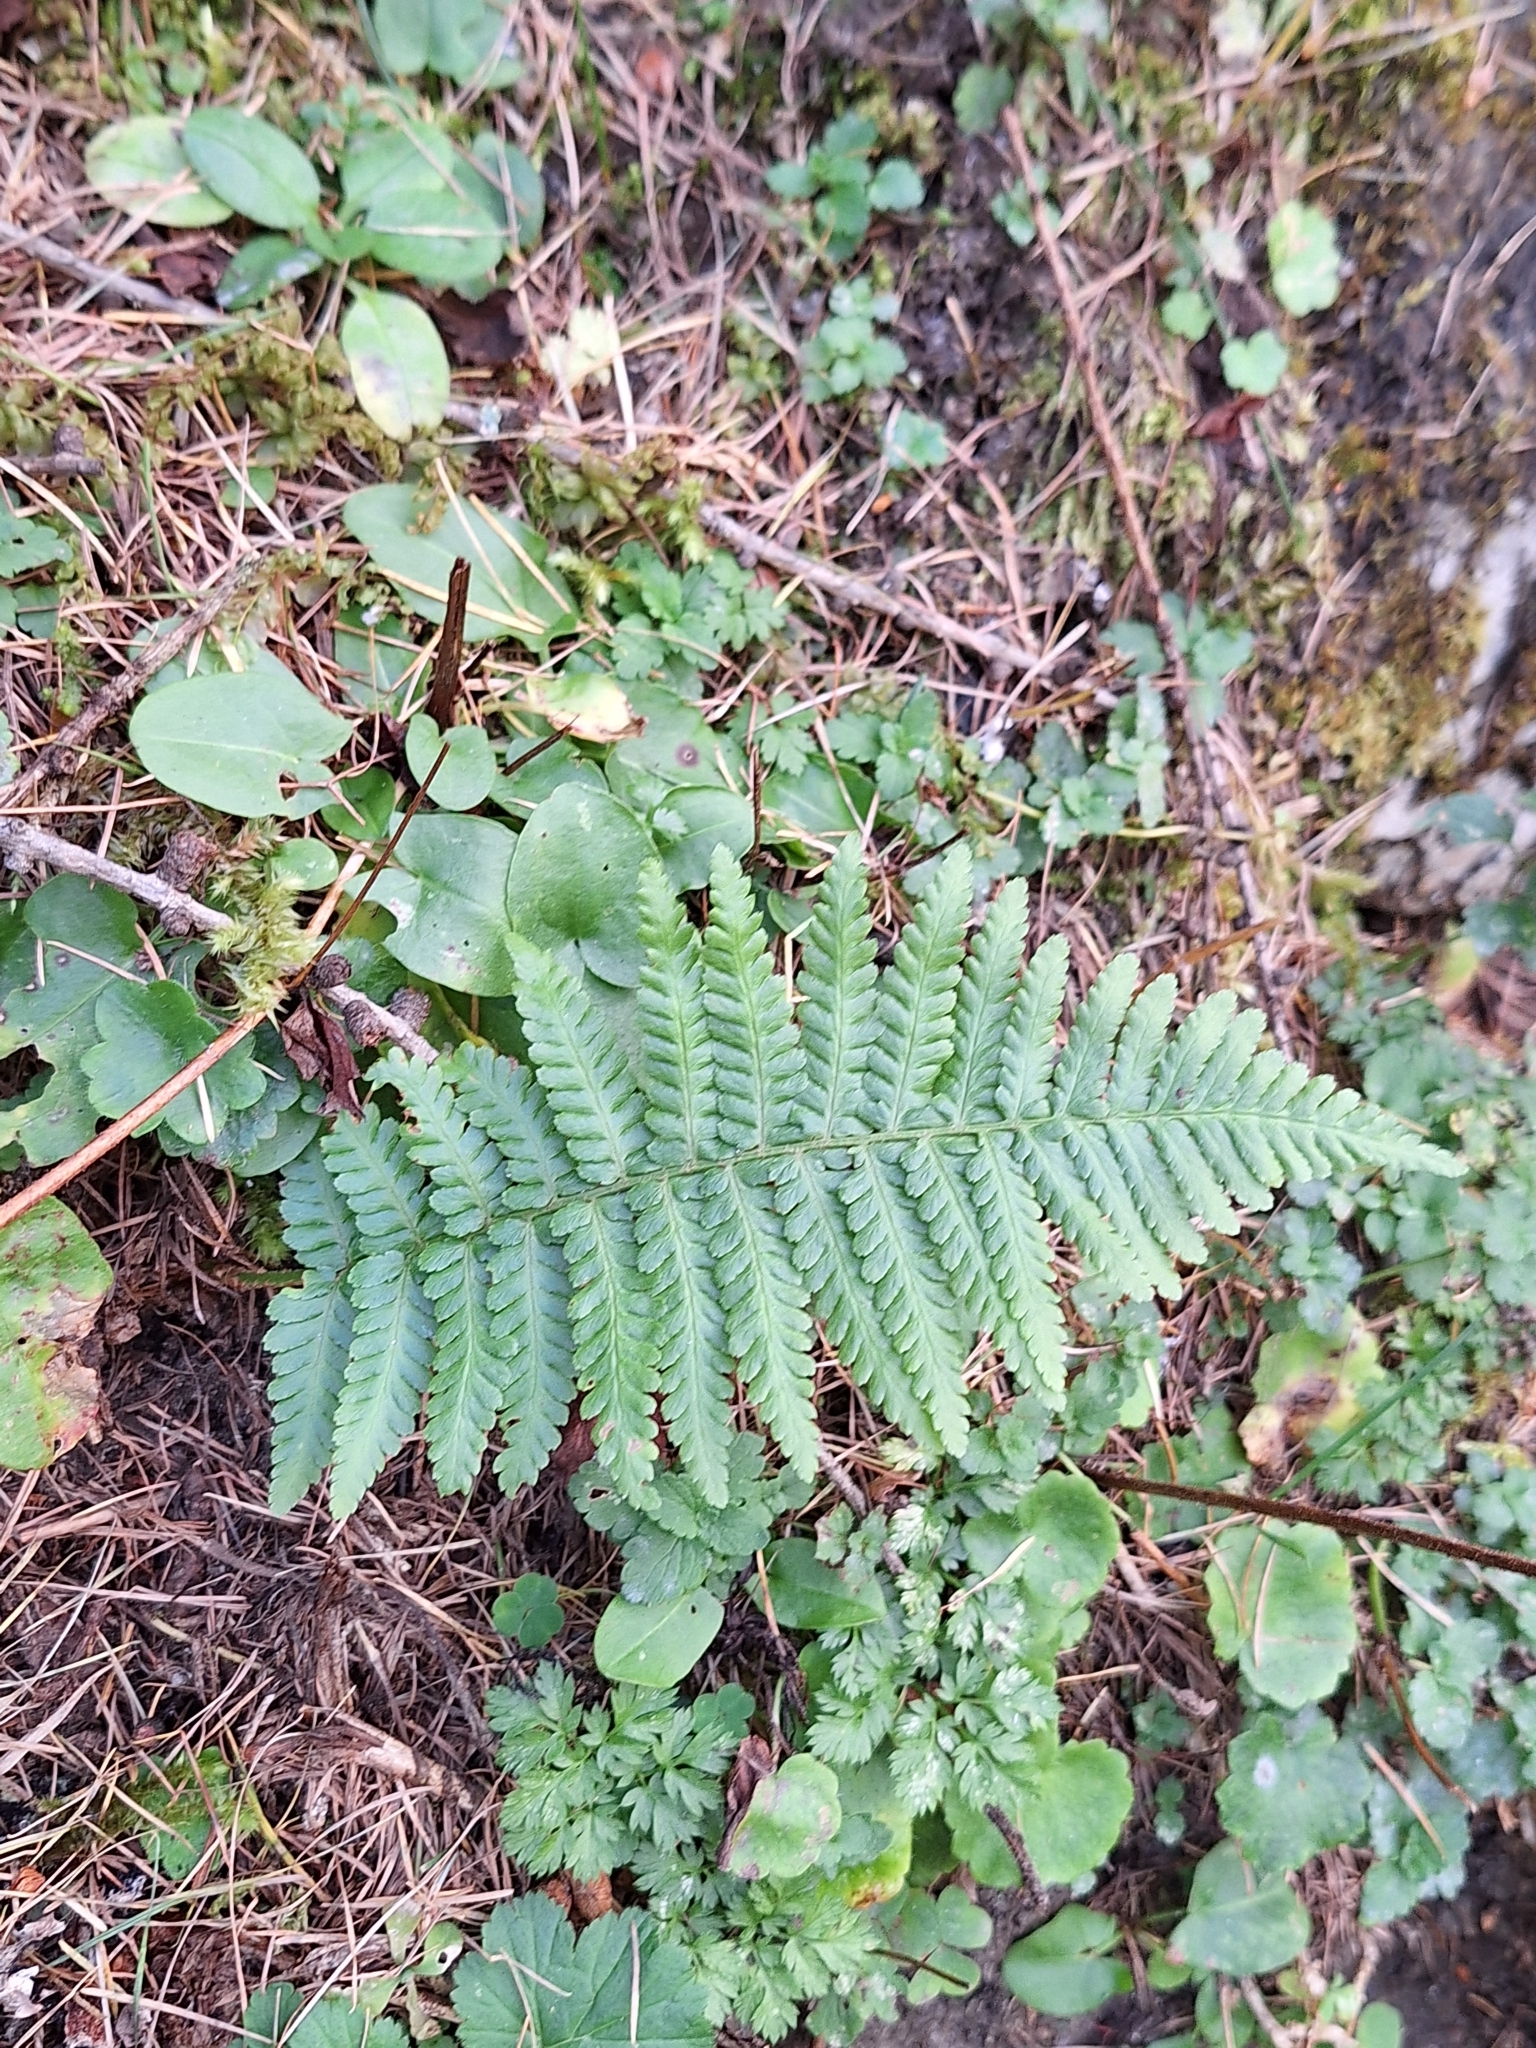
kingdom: Plantae
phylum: Tracheophyta
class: Polypodiopsida
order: Polypodiales
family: Dryopteridaceae
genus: Dryopteris
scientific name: Dryopteris filix-mas
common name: Male fern
